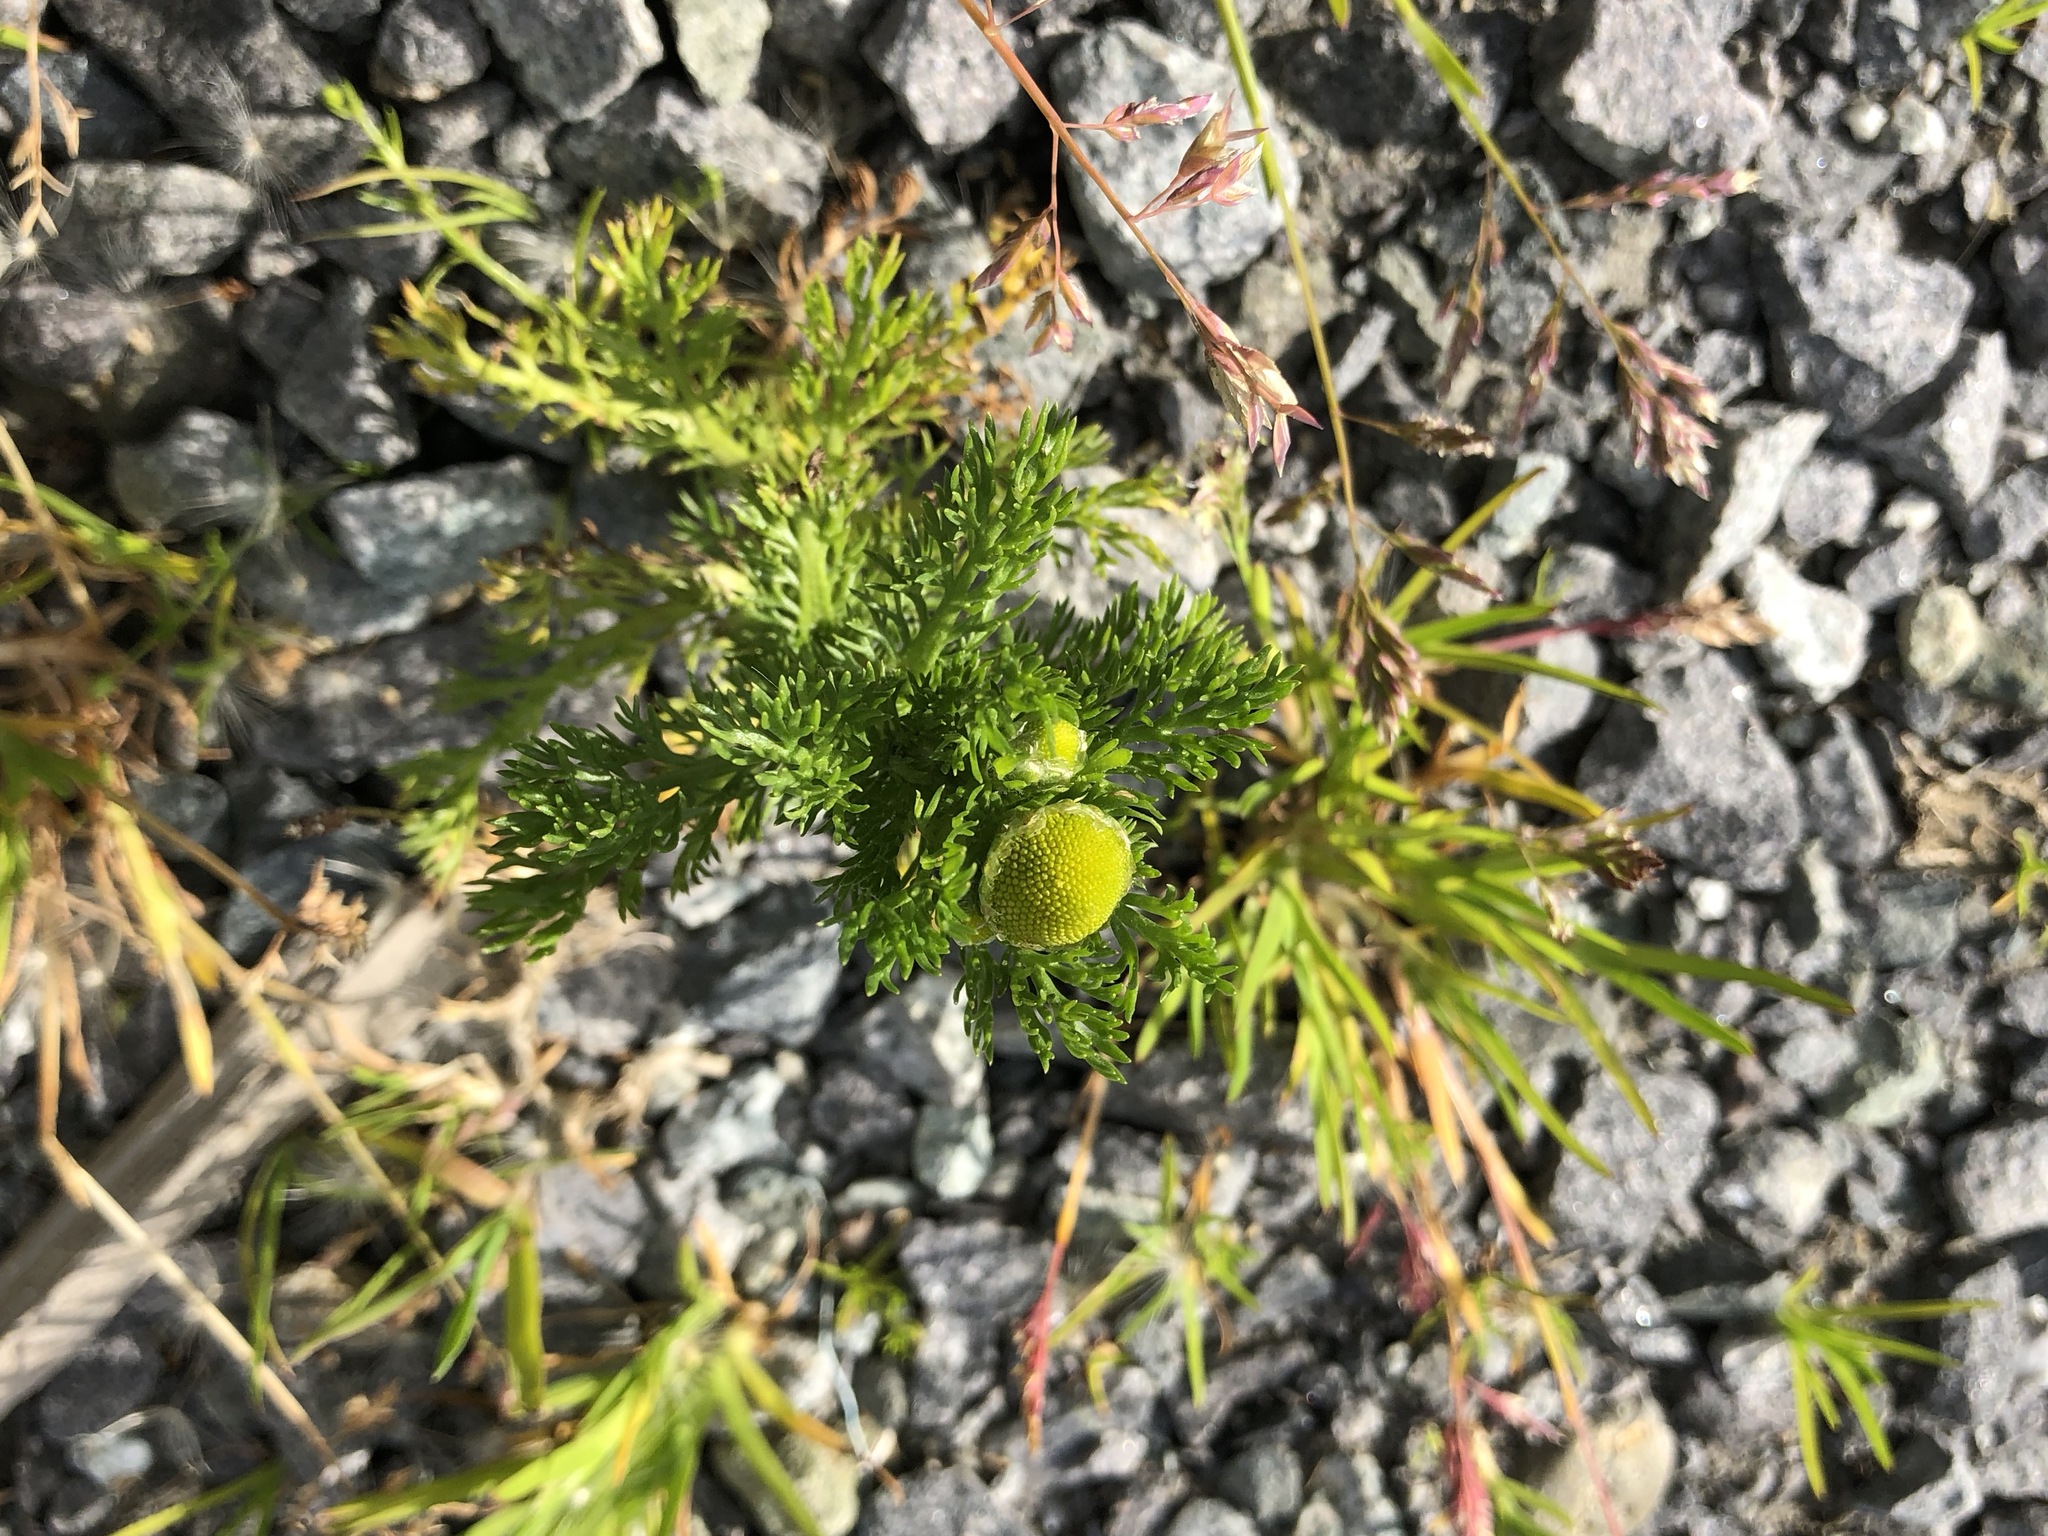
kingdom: Plantae
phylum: Tracheophyta
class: Magnoliopsida
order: Asterales
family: Asteraceae
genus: Matricaria
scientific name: Matricaria discoidea
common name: Disc mayweed
